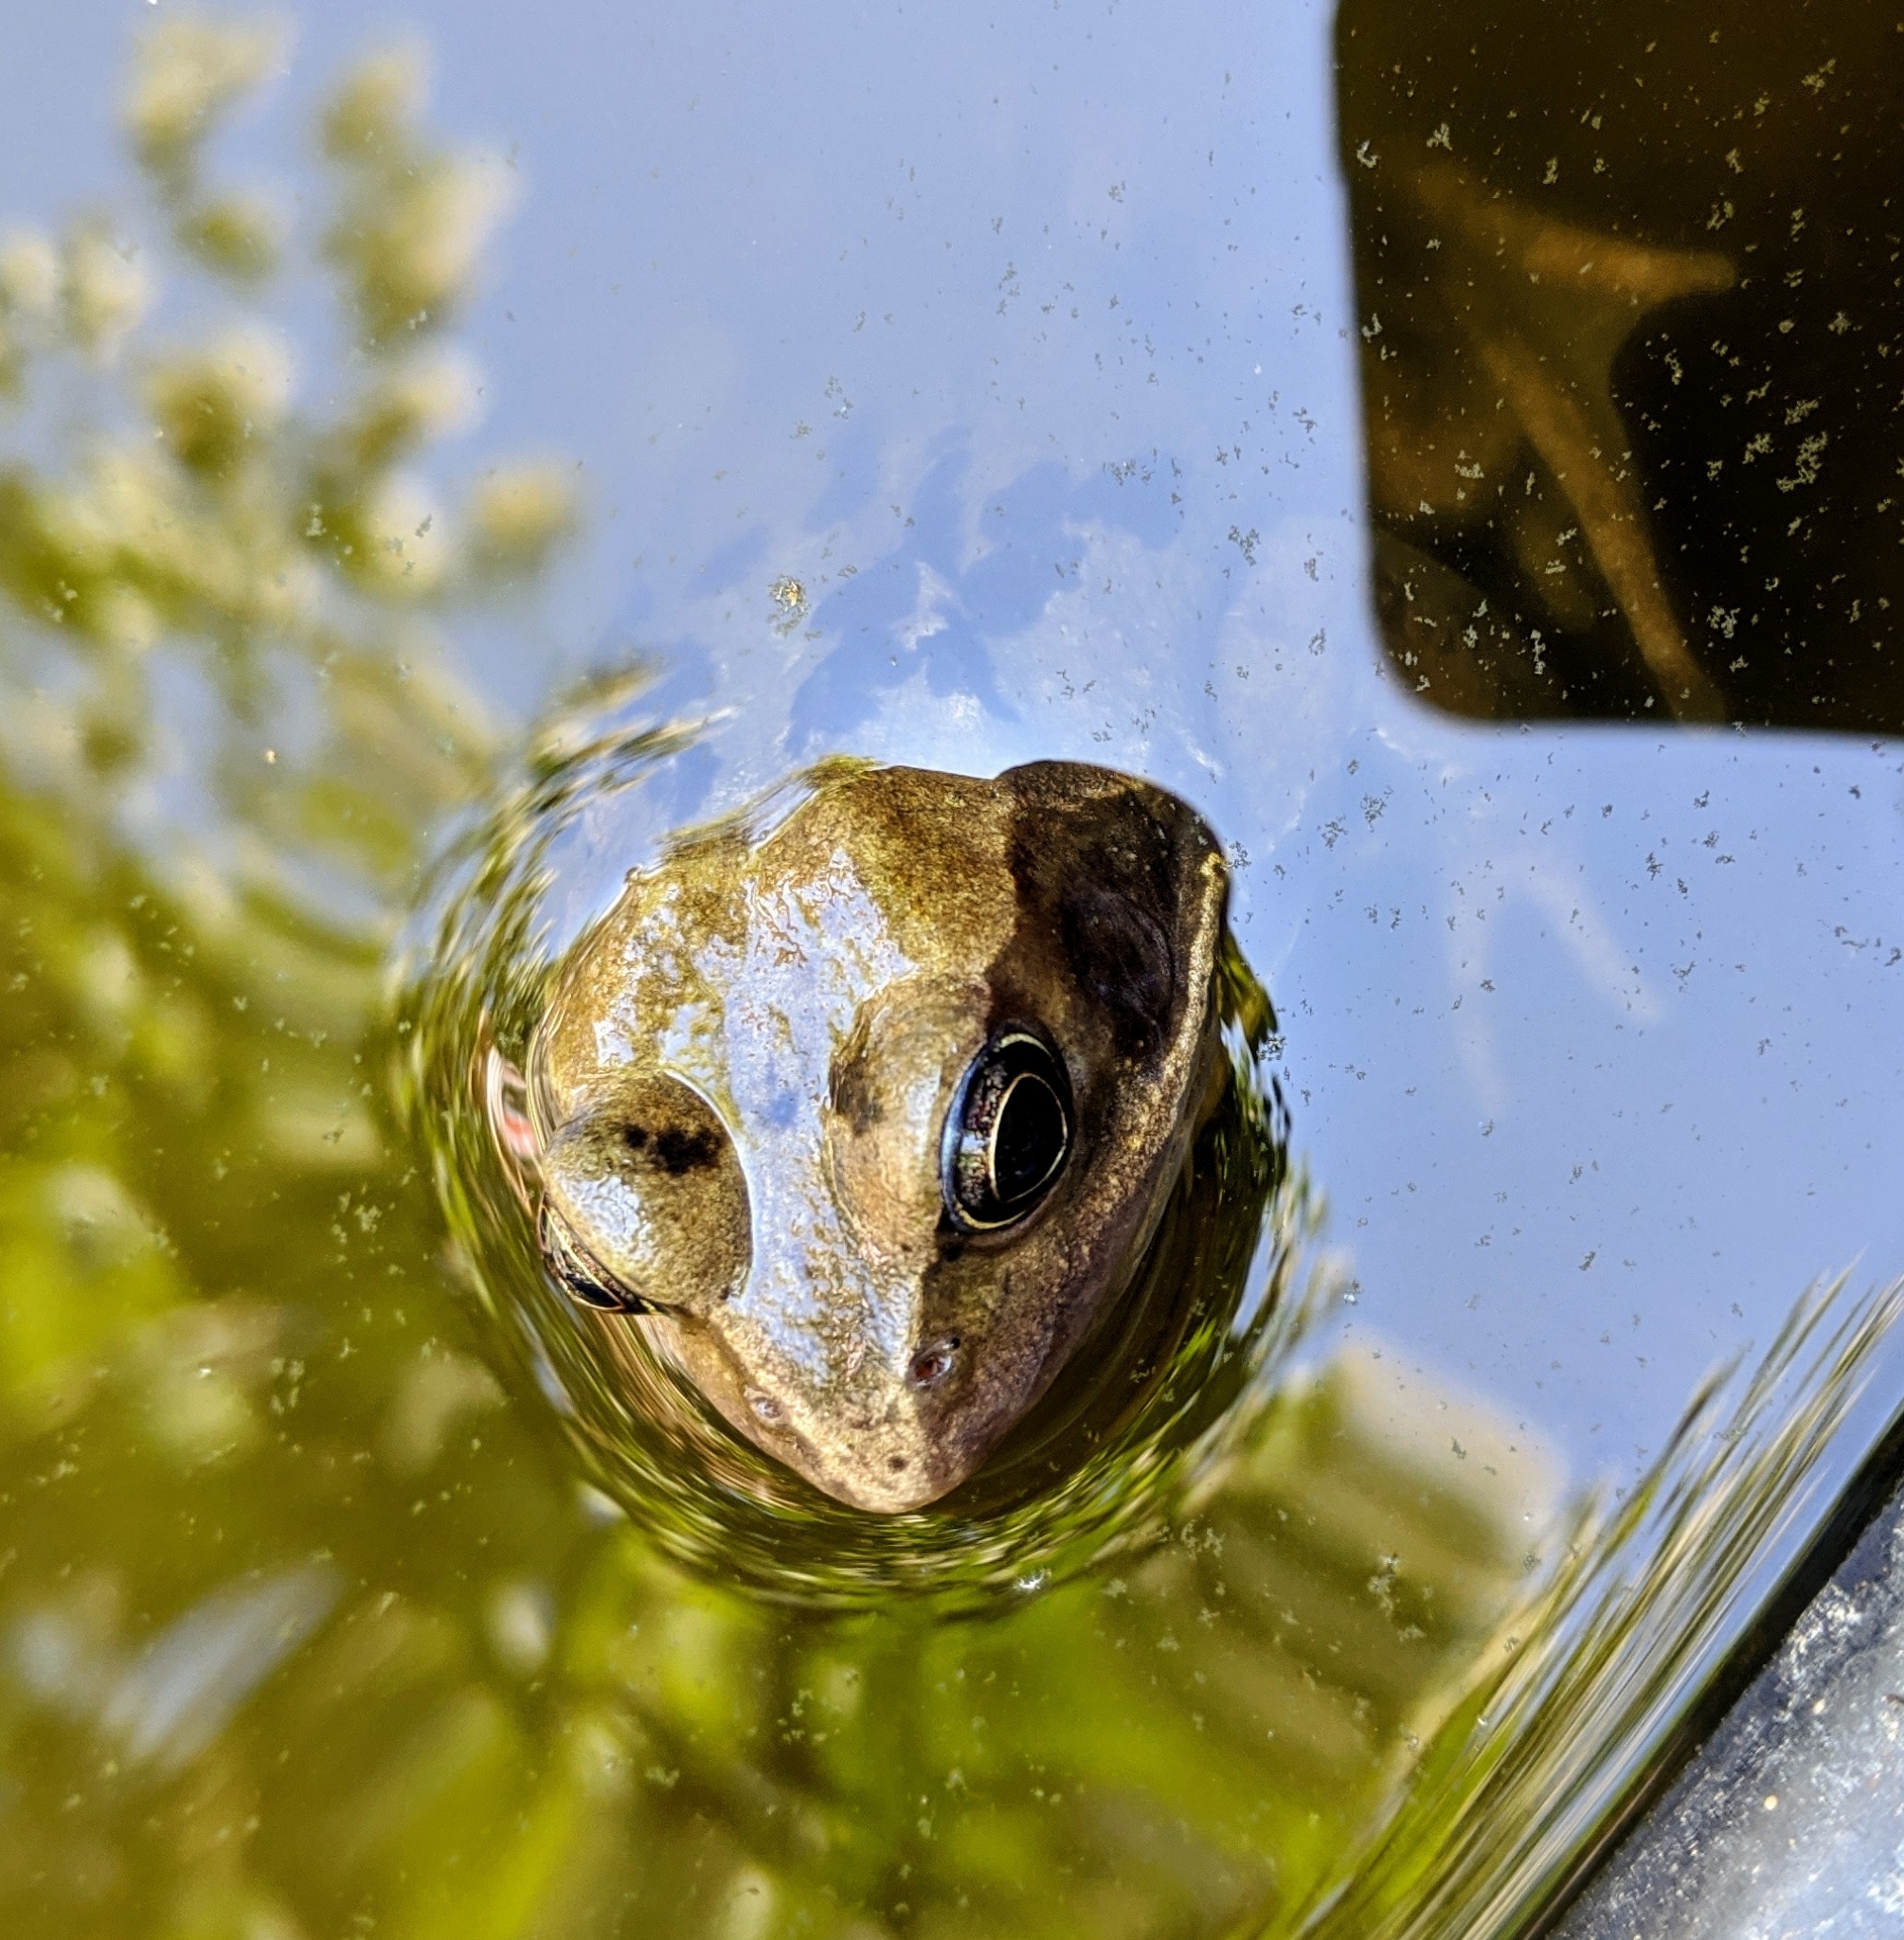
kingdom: Animalia
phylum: Chordata
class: Amphibia
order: Anura
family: Ranidae
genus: Rana
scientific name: Rana temporaria
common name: Common frog
